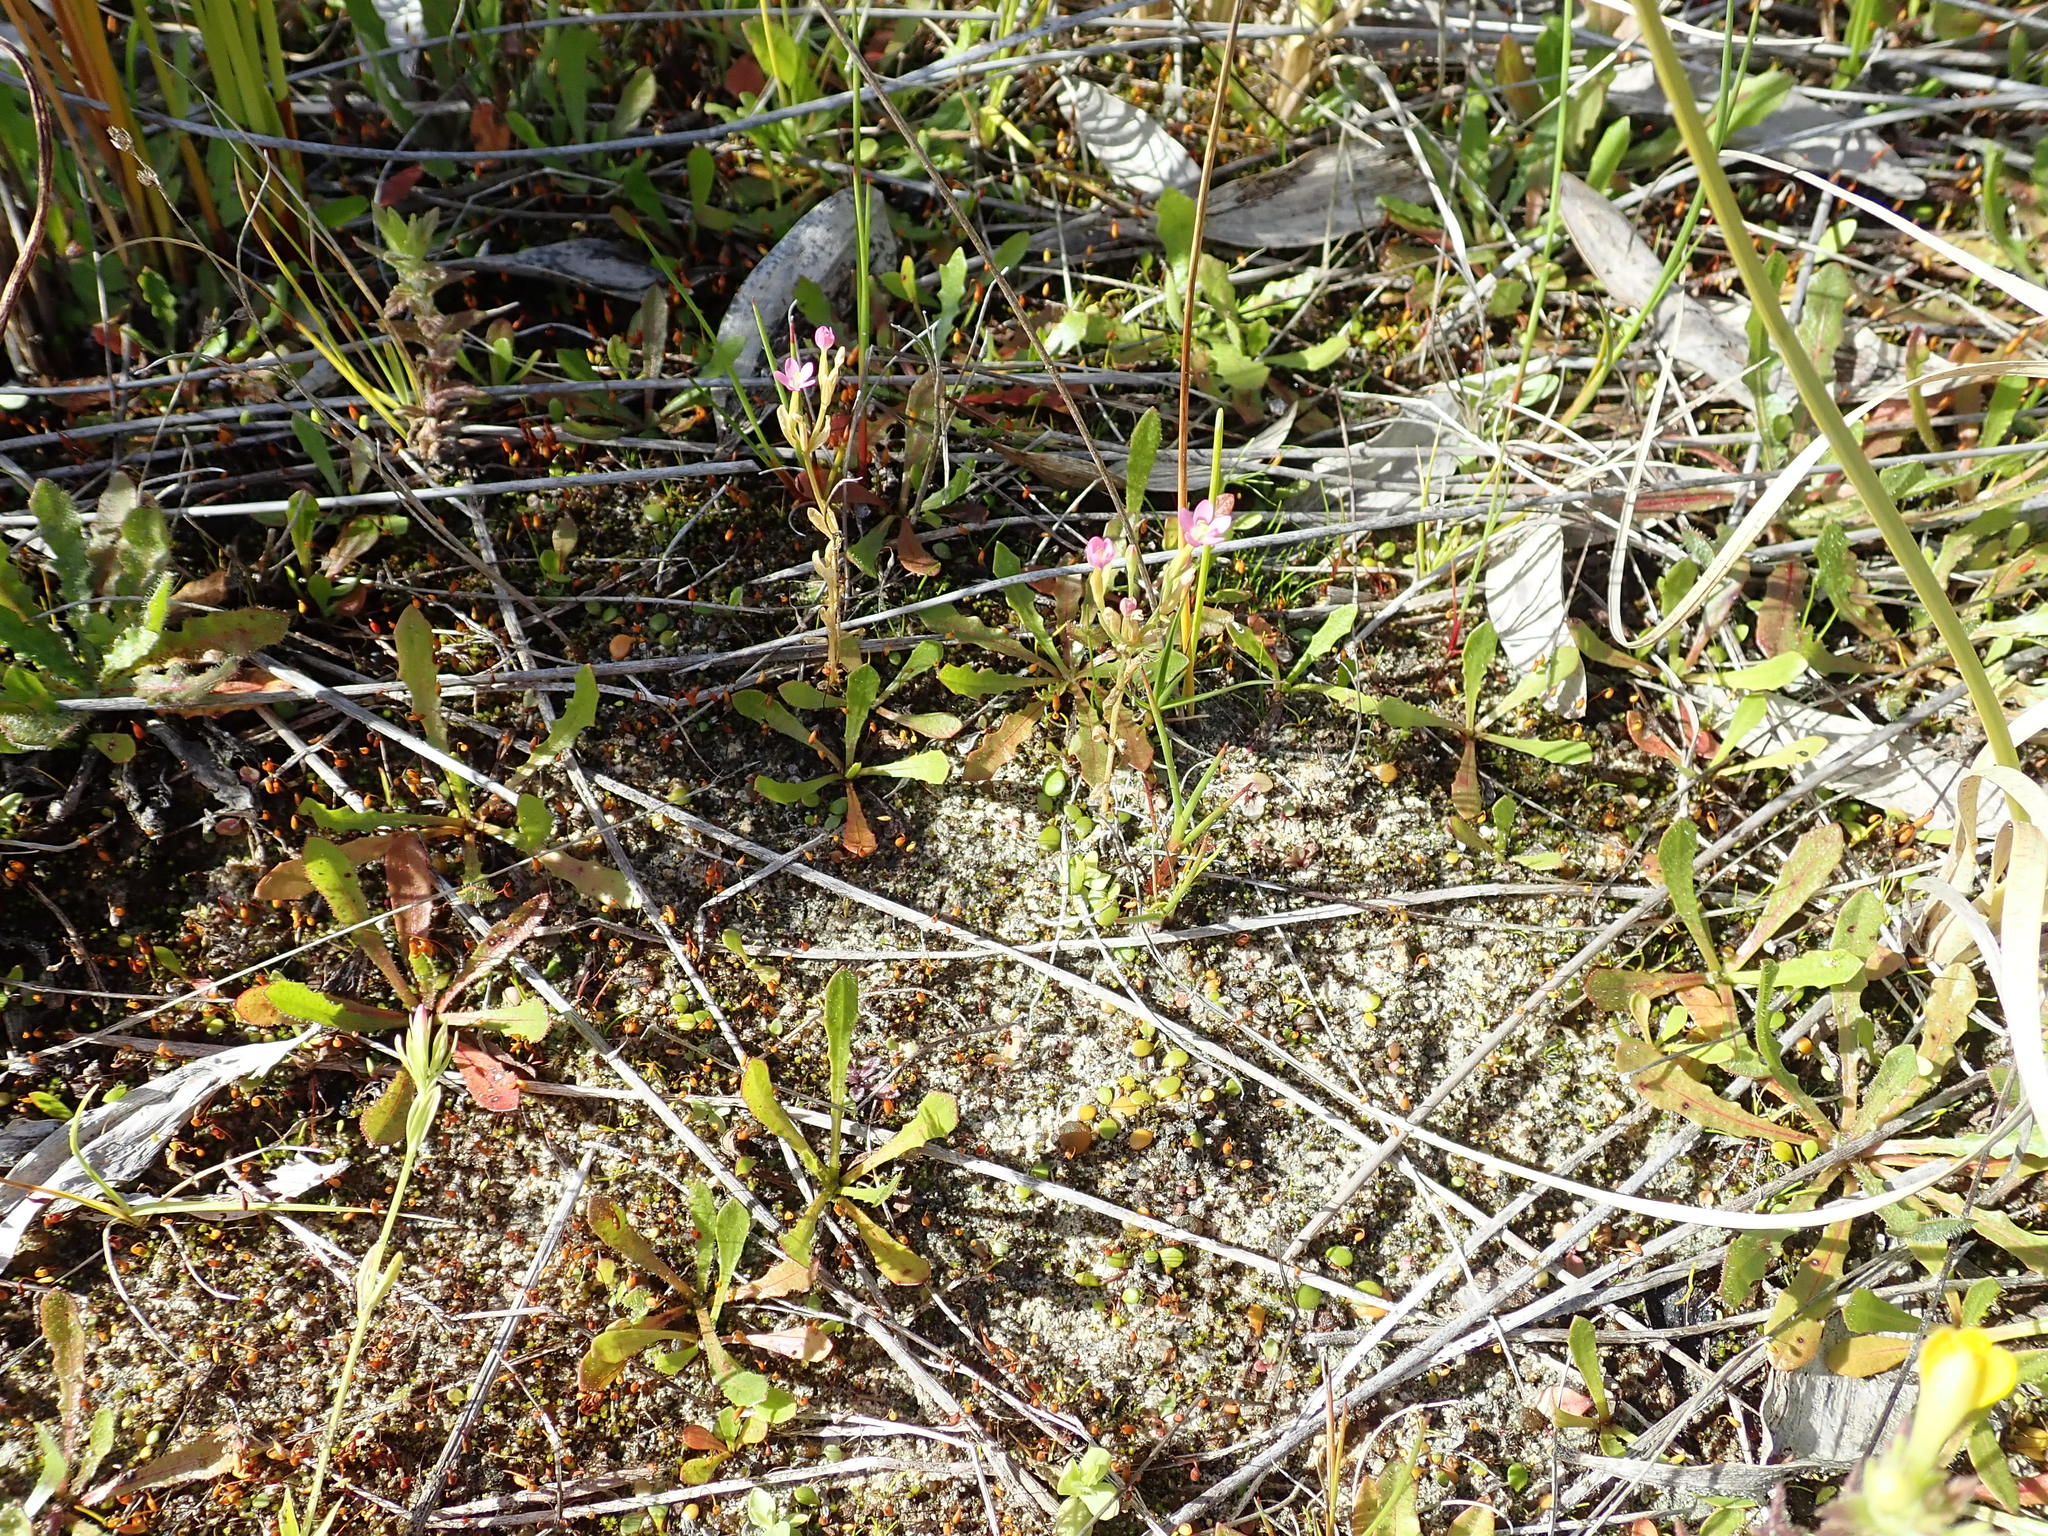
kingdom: Plantae
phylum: Tracheophyta
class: Magnoliopsida
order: Gentianales
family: Gentianaceae
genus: Centaurium
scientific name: Centaurium erythraea
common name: Common centaury
